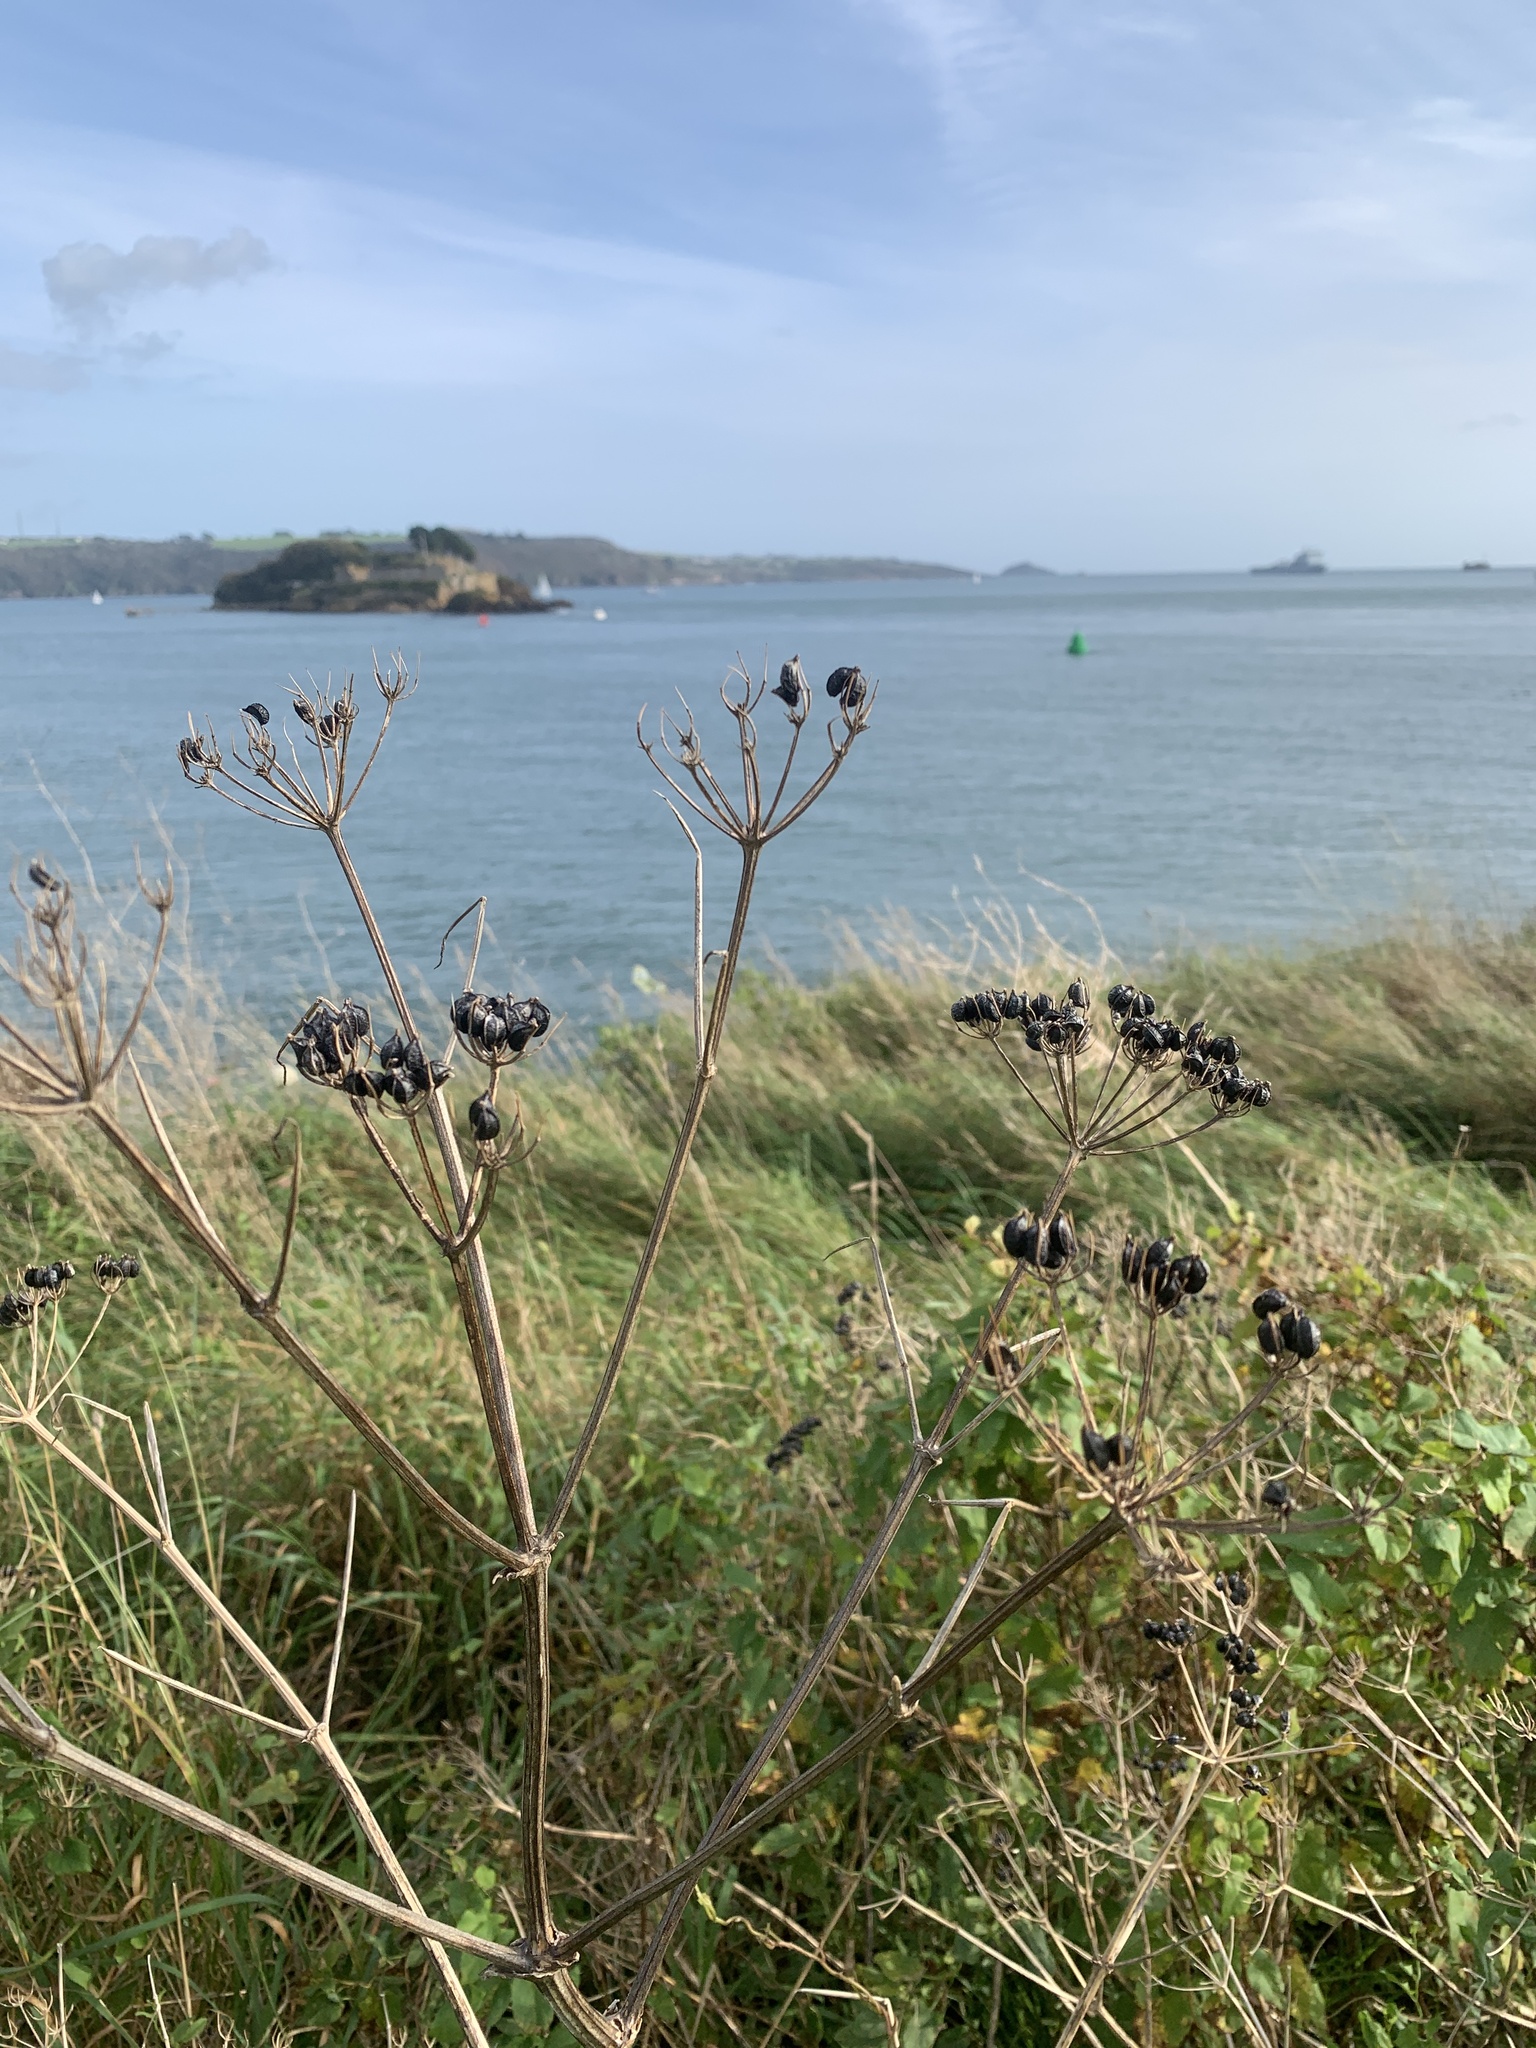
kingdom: Plantae
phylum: Tracheophyta
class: Magnoliopsida
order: Apiales
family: Apiaceae
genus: Smyrnium
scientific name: Smyrnium olusatrum
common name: Alexanders
